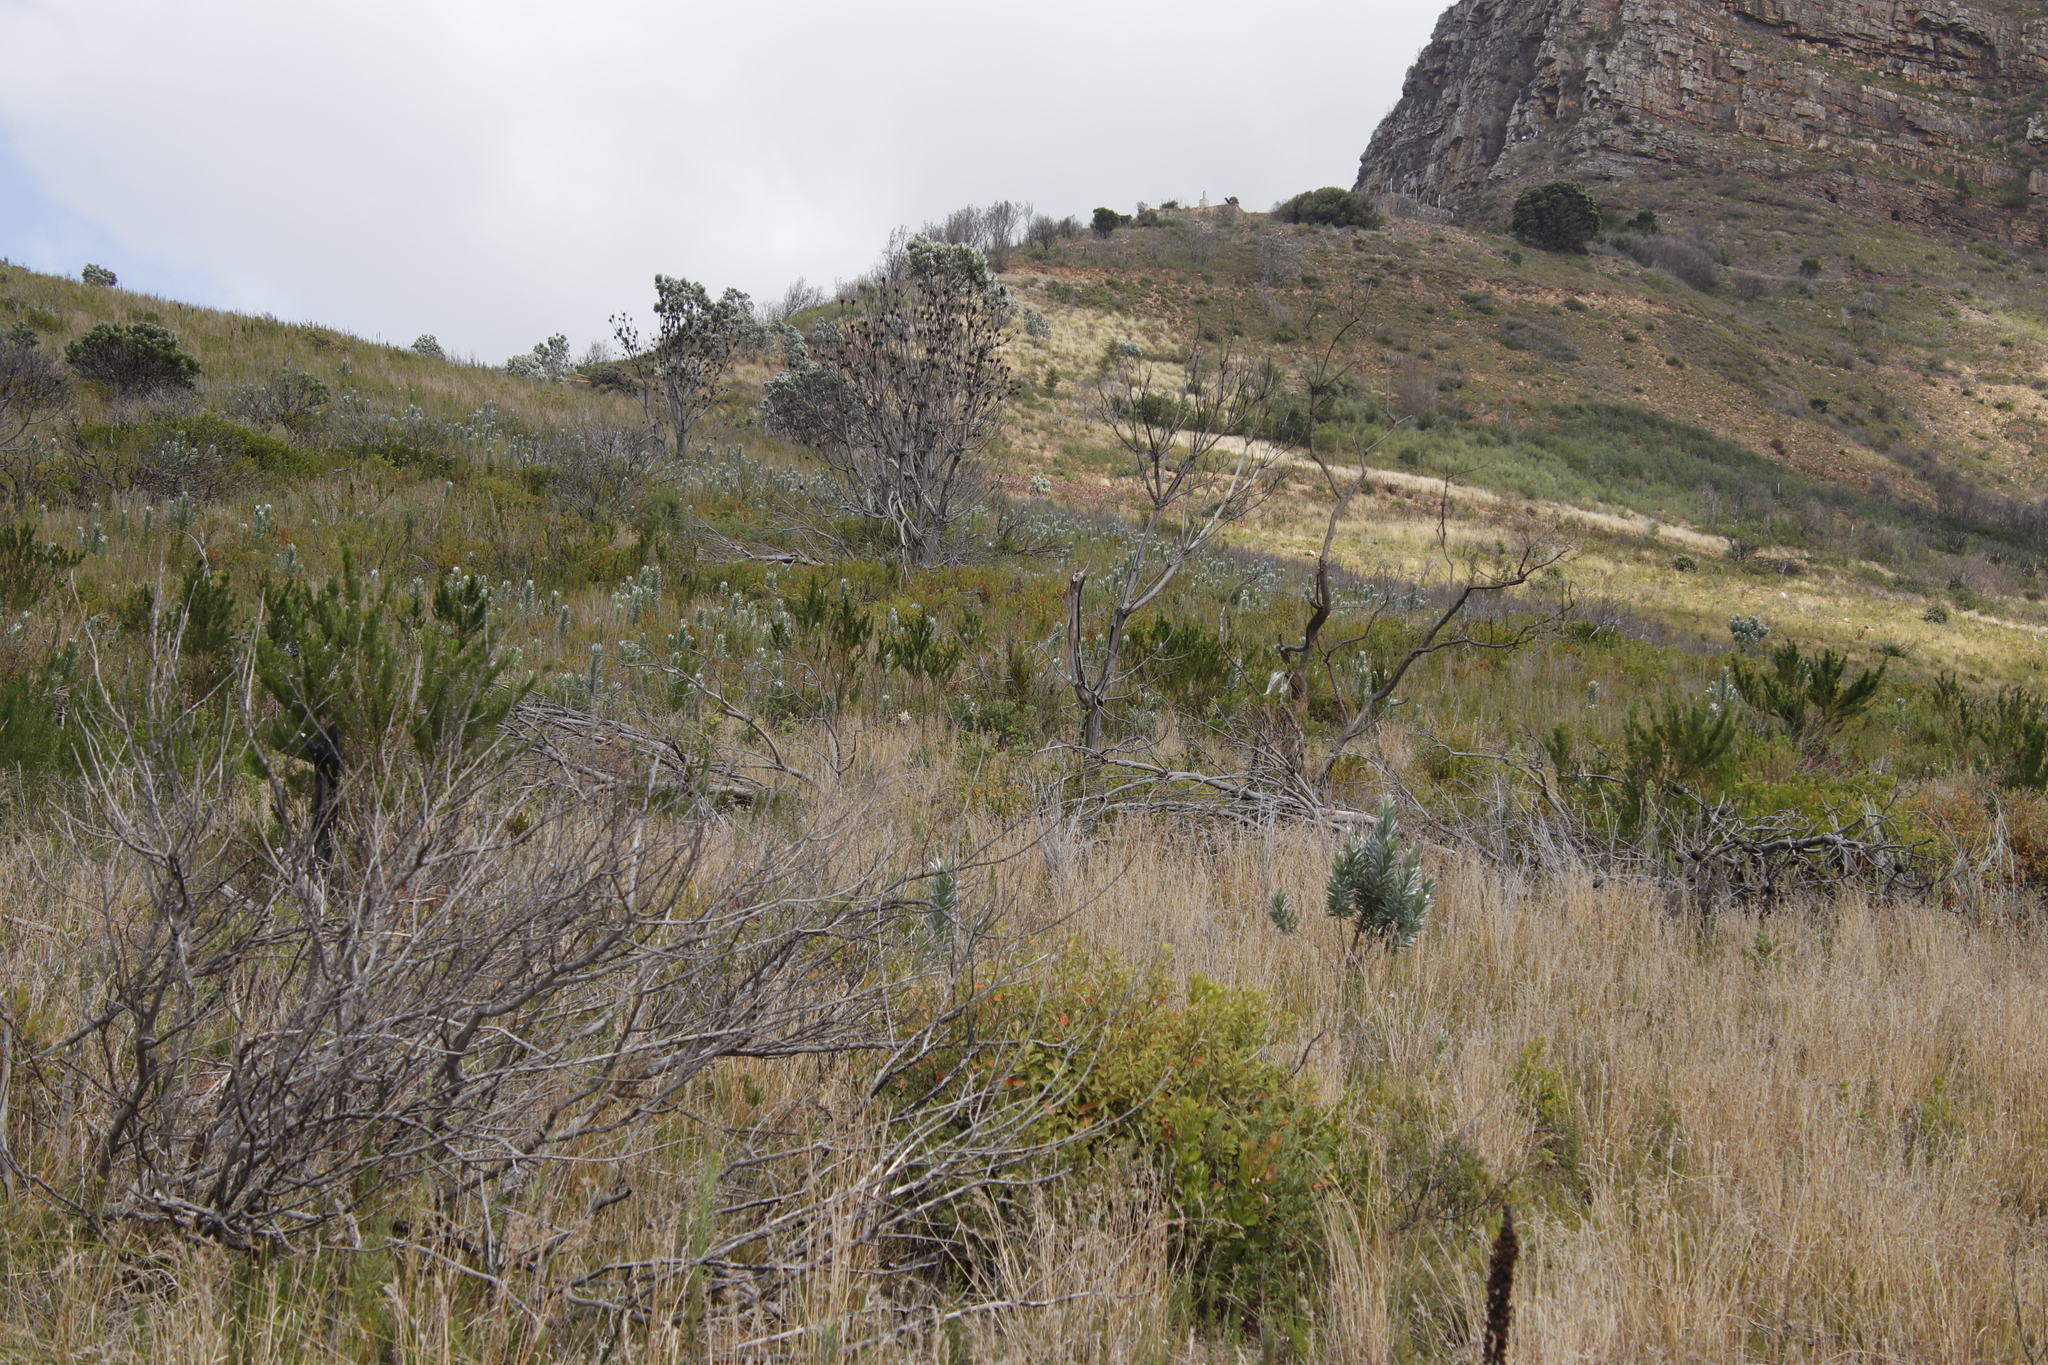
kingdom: Plantae
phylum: Tracheophyta
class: Magnoliopsida
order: Proteales
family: Proteaceae
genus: Leucadendron
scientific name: Leucadendron argenteum
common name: Cape silver tree
